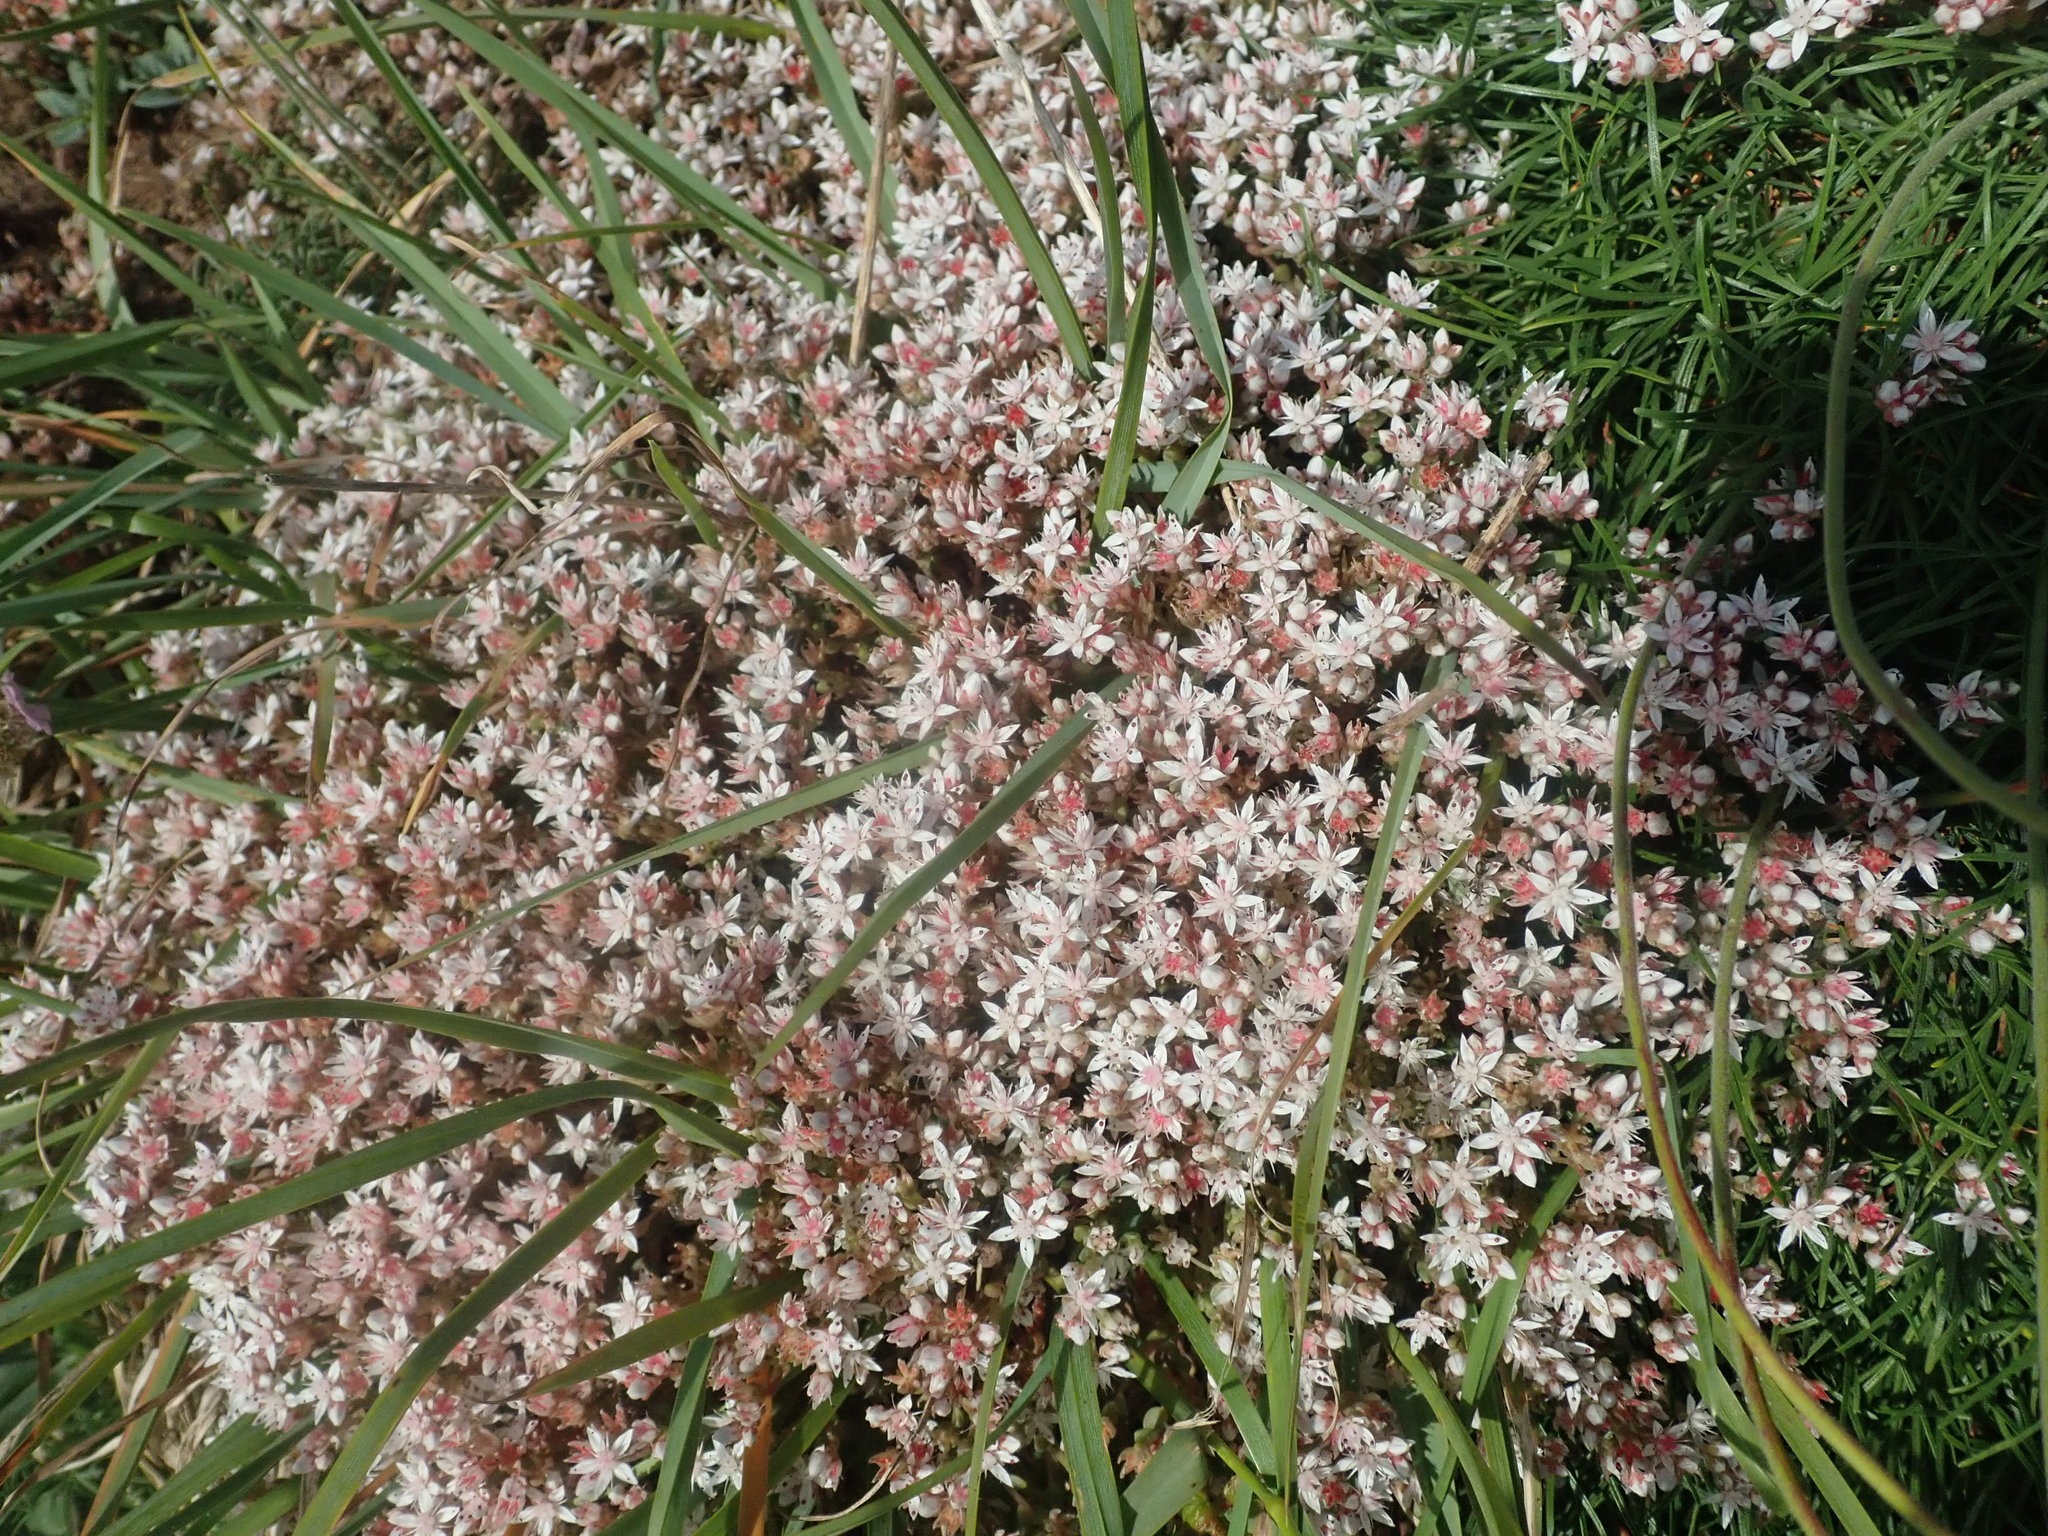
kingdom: Plantae
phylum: Tracheophyta
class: Magnoliopsida
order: Saxifragales
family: Crassulaceae
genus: Sedum
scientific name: Sedum anglicum
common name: English stonecrop
